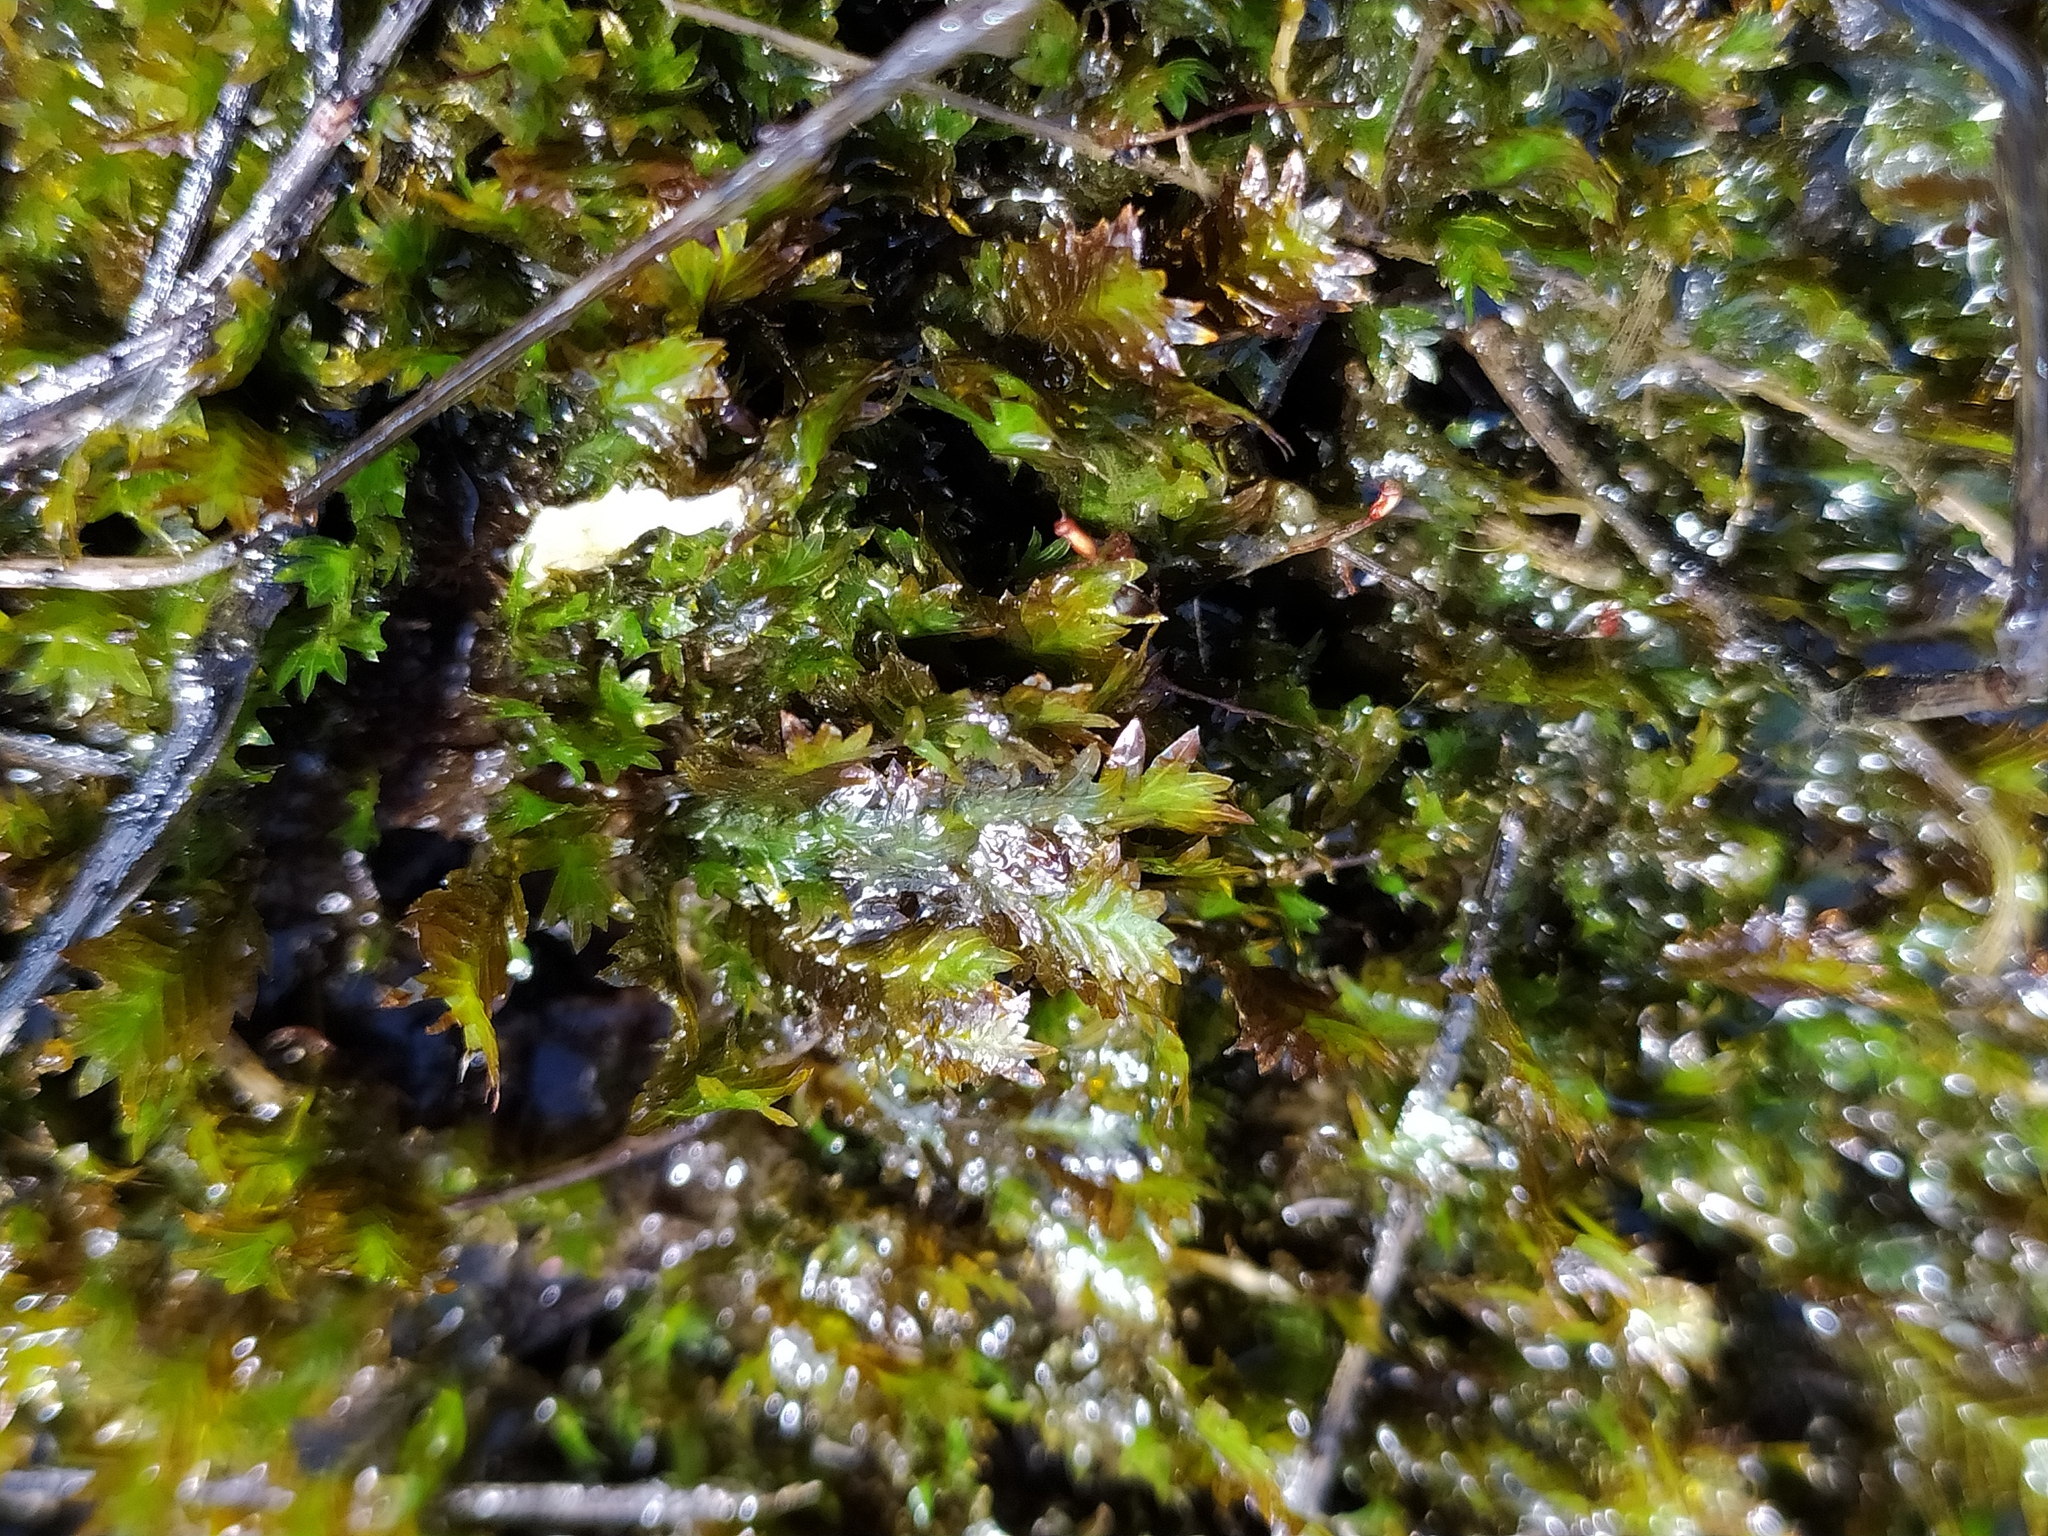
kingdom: Plantae
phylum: Bryophyta
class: Bryopsida
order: Dicranales
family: Fissidentaceae
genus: Fissidens
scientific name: Fissidens adianthoides
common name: Maidenhair pocket moss
